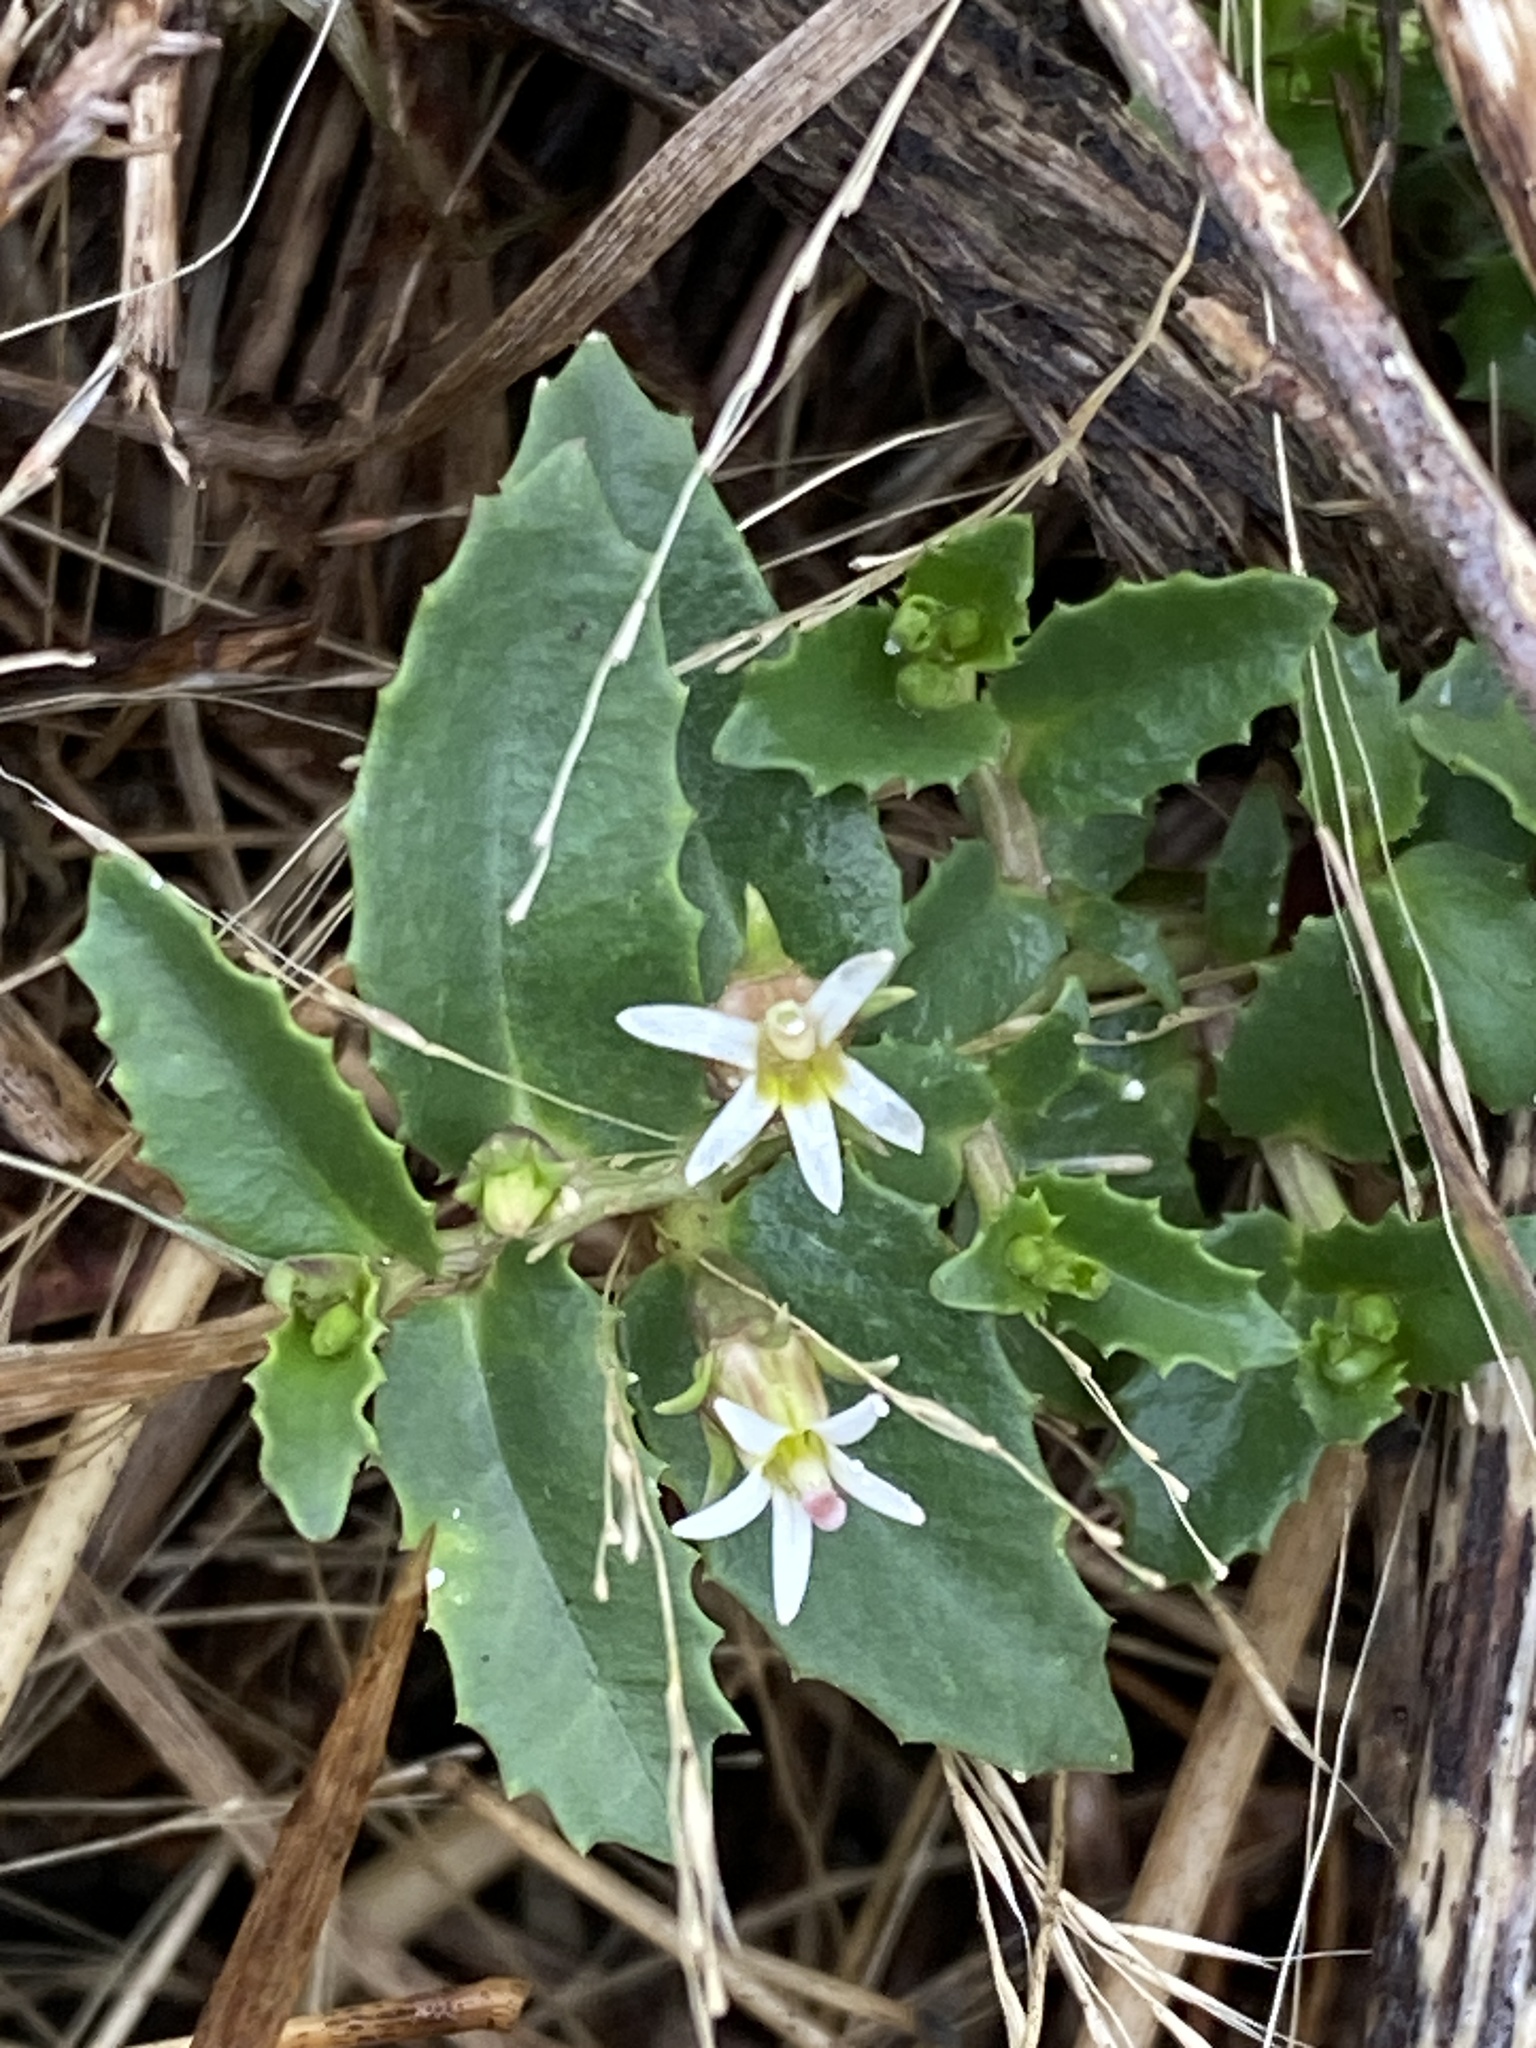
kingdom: Plantae
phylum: Tracheophyta
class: Magnoliopsida
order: Asterales
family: Campanulaceae
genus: Lobelia
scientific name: Lobelia concolor
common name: Poison pratia
